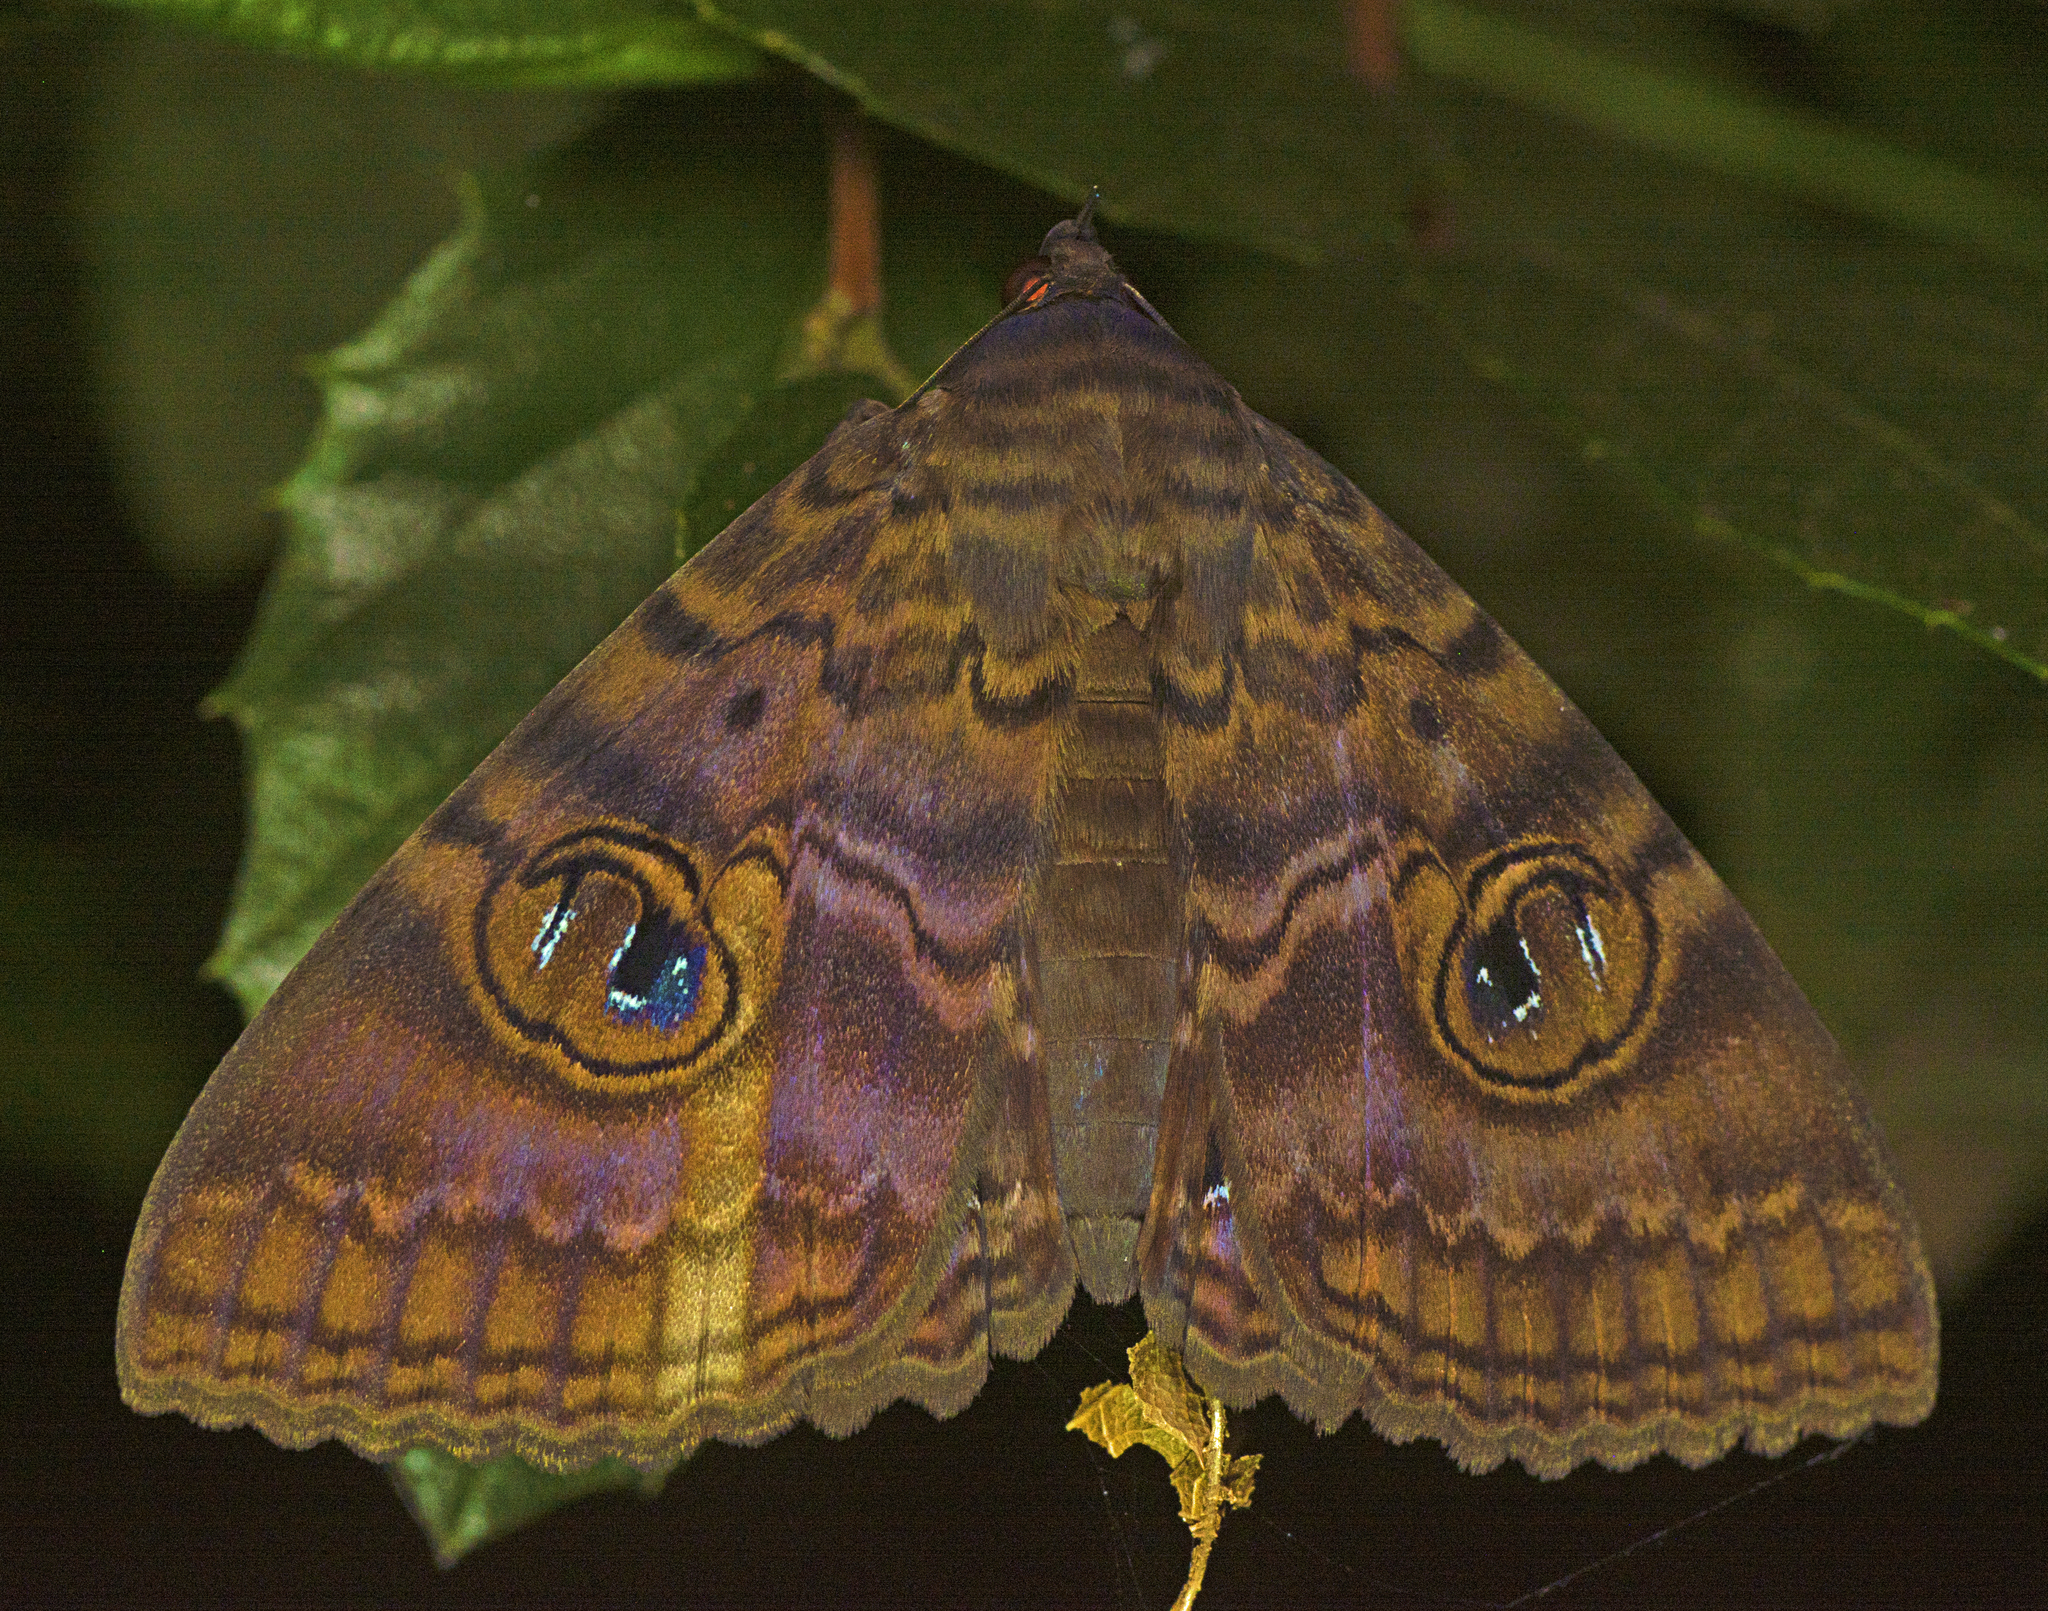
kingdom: Animalia
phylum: Arthropoda
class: Insecta
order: Lepidoptera
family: Erebidae
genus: Speiredonia
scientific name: Speiredonia spectans
